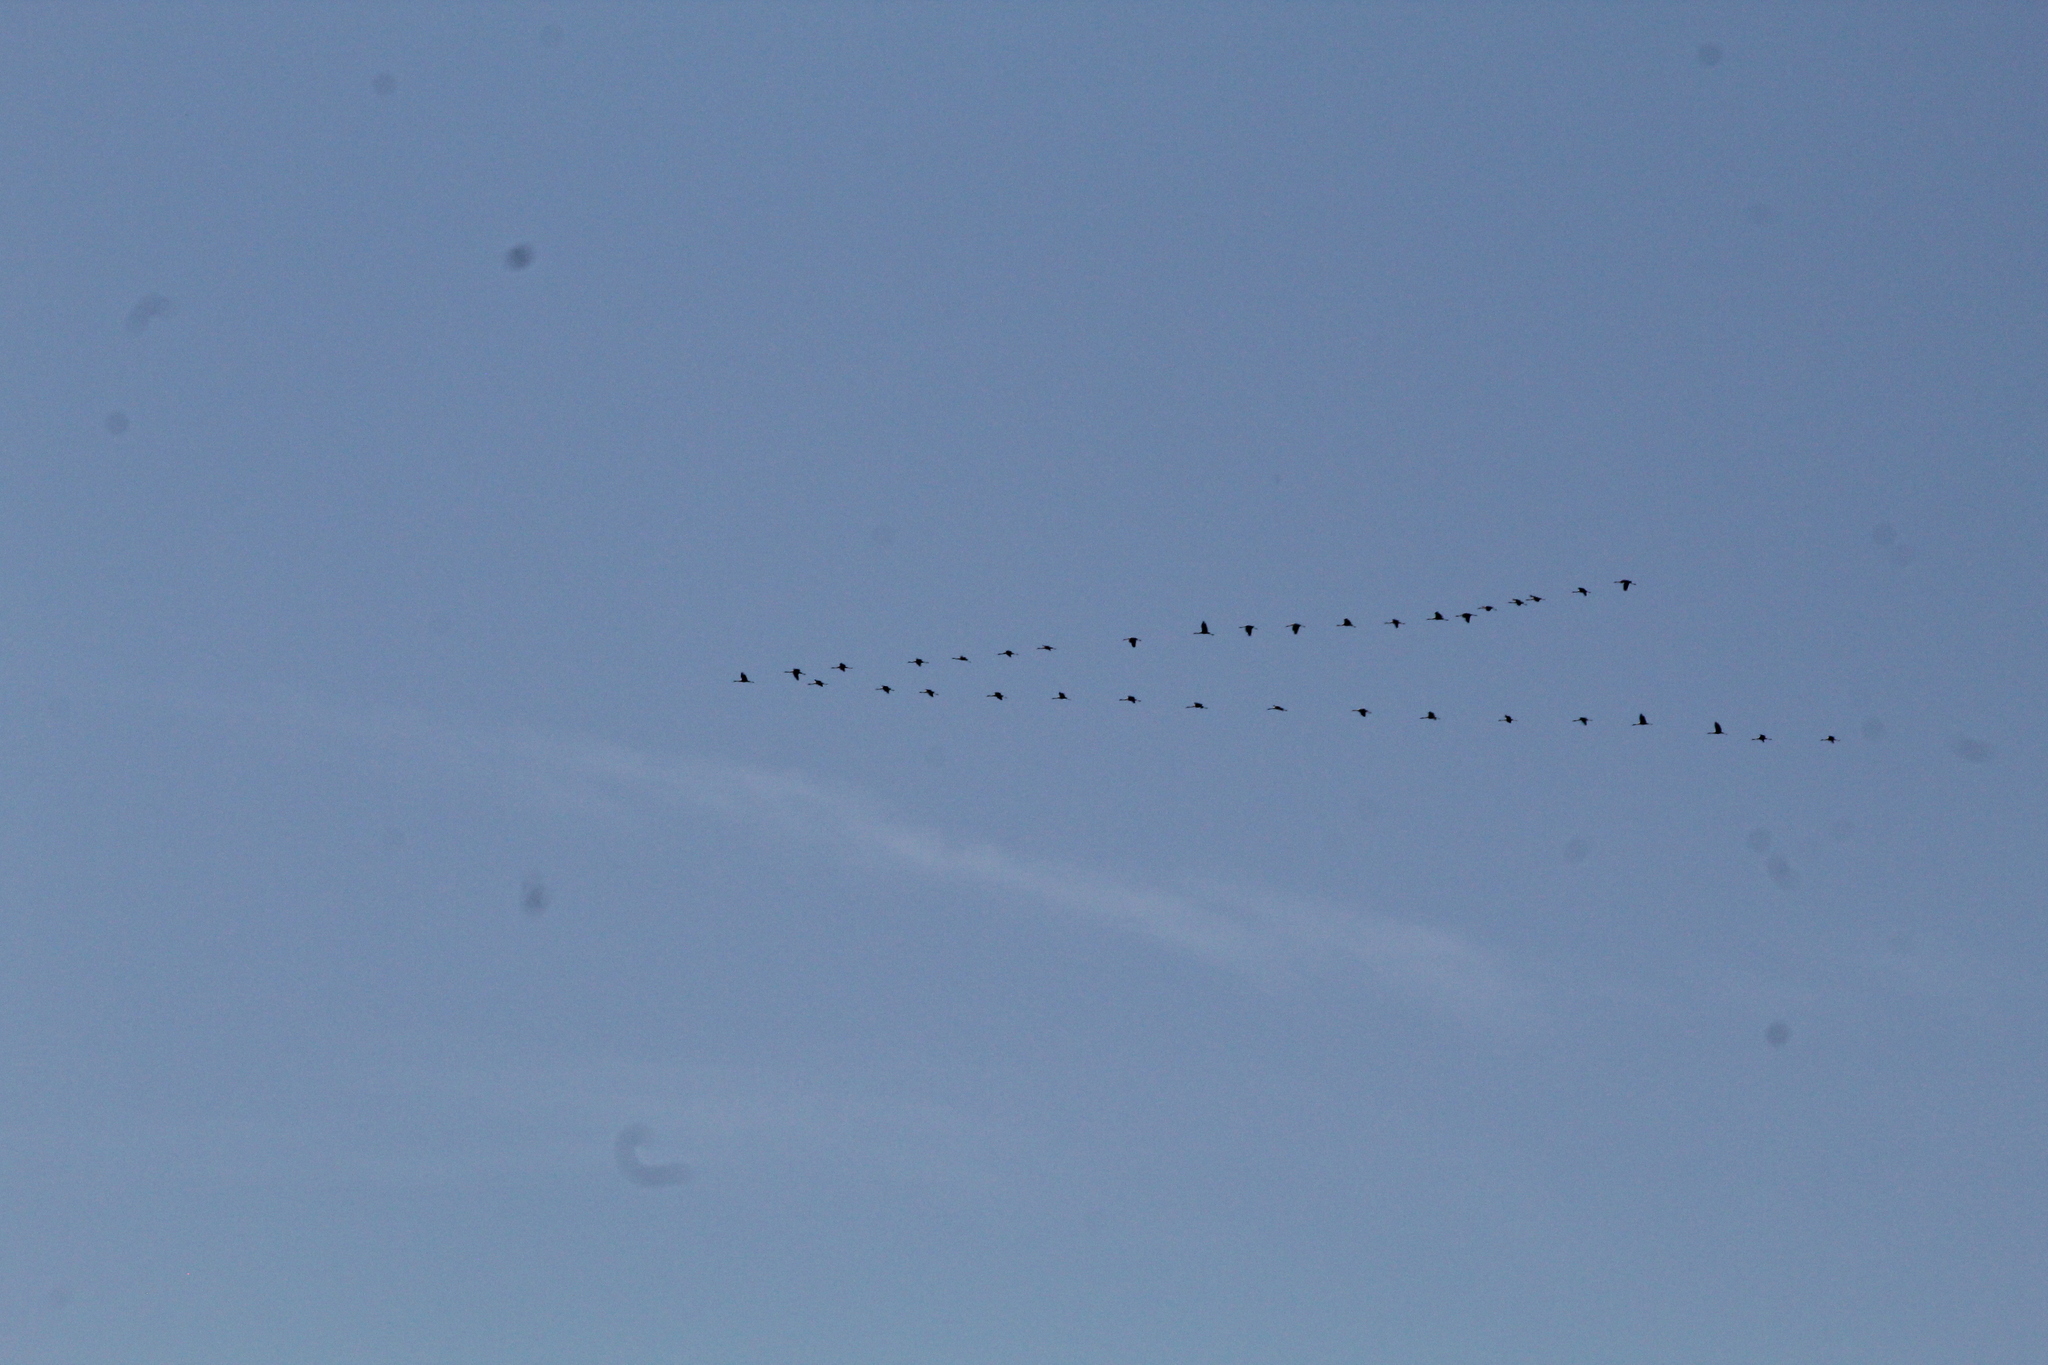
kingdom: Animalia
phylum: Chordata
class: Aves
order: Gruiformes
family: Gruidae
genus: Grus
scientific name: Grus grus
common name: Common crane
